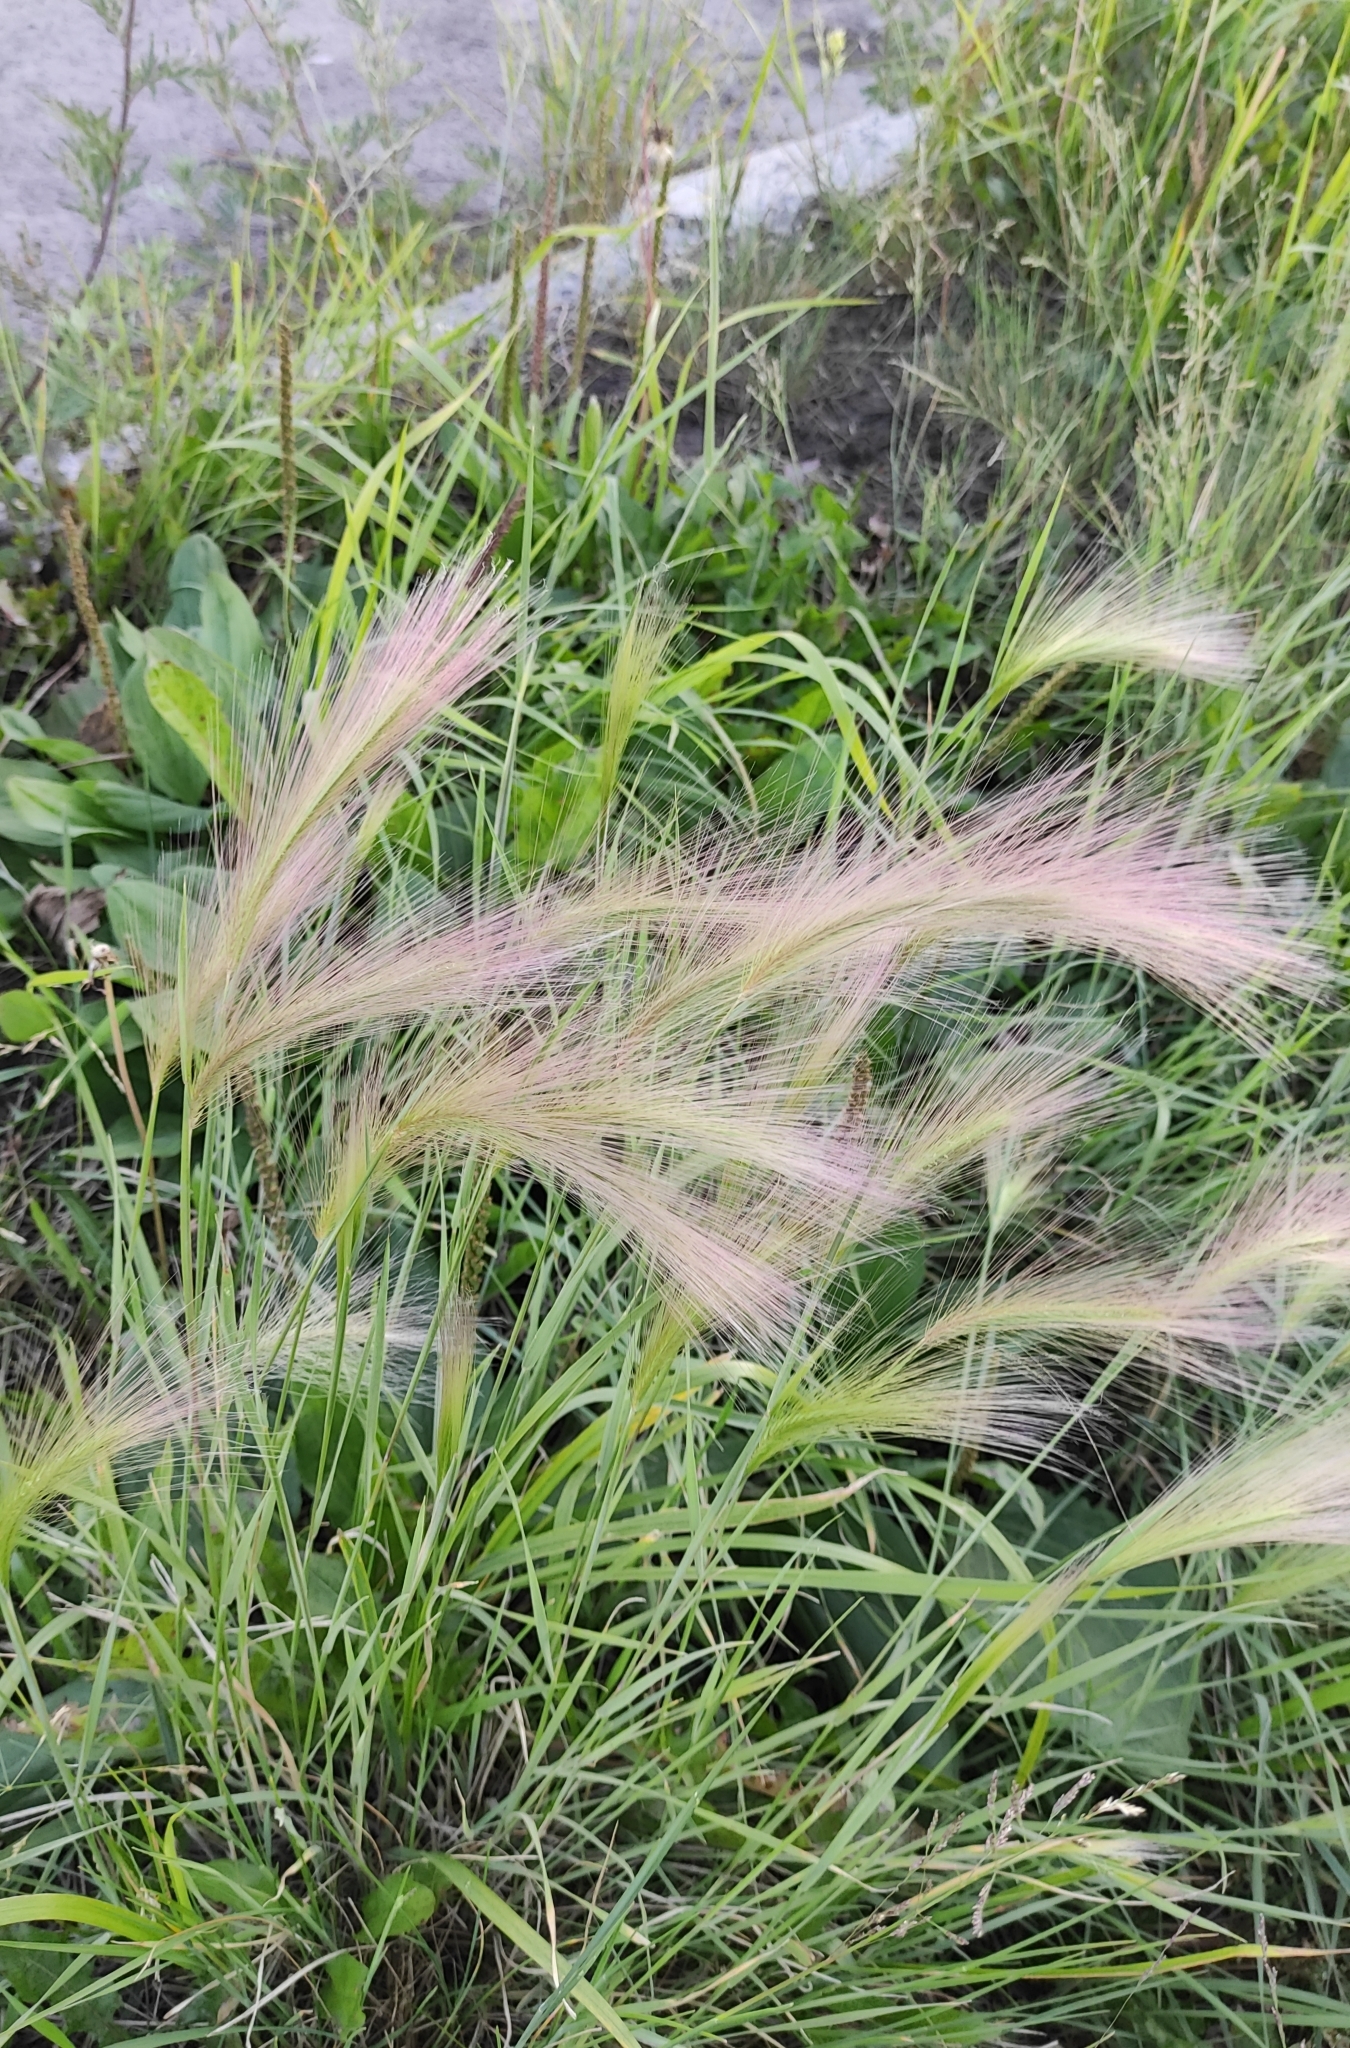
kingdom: Plantae
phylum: Tracheophyta
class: Liliopsida
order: Poales
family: Poaceae
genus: Hordeum
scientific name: Hordeum jubatum
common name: Foxtail barley
